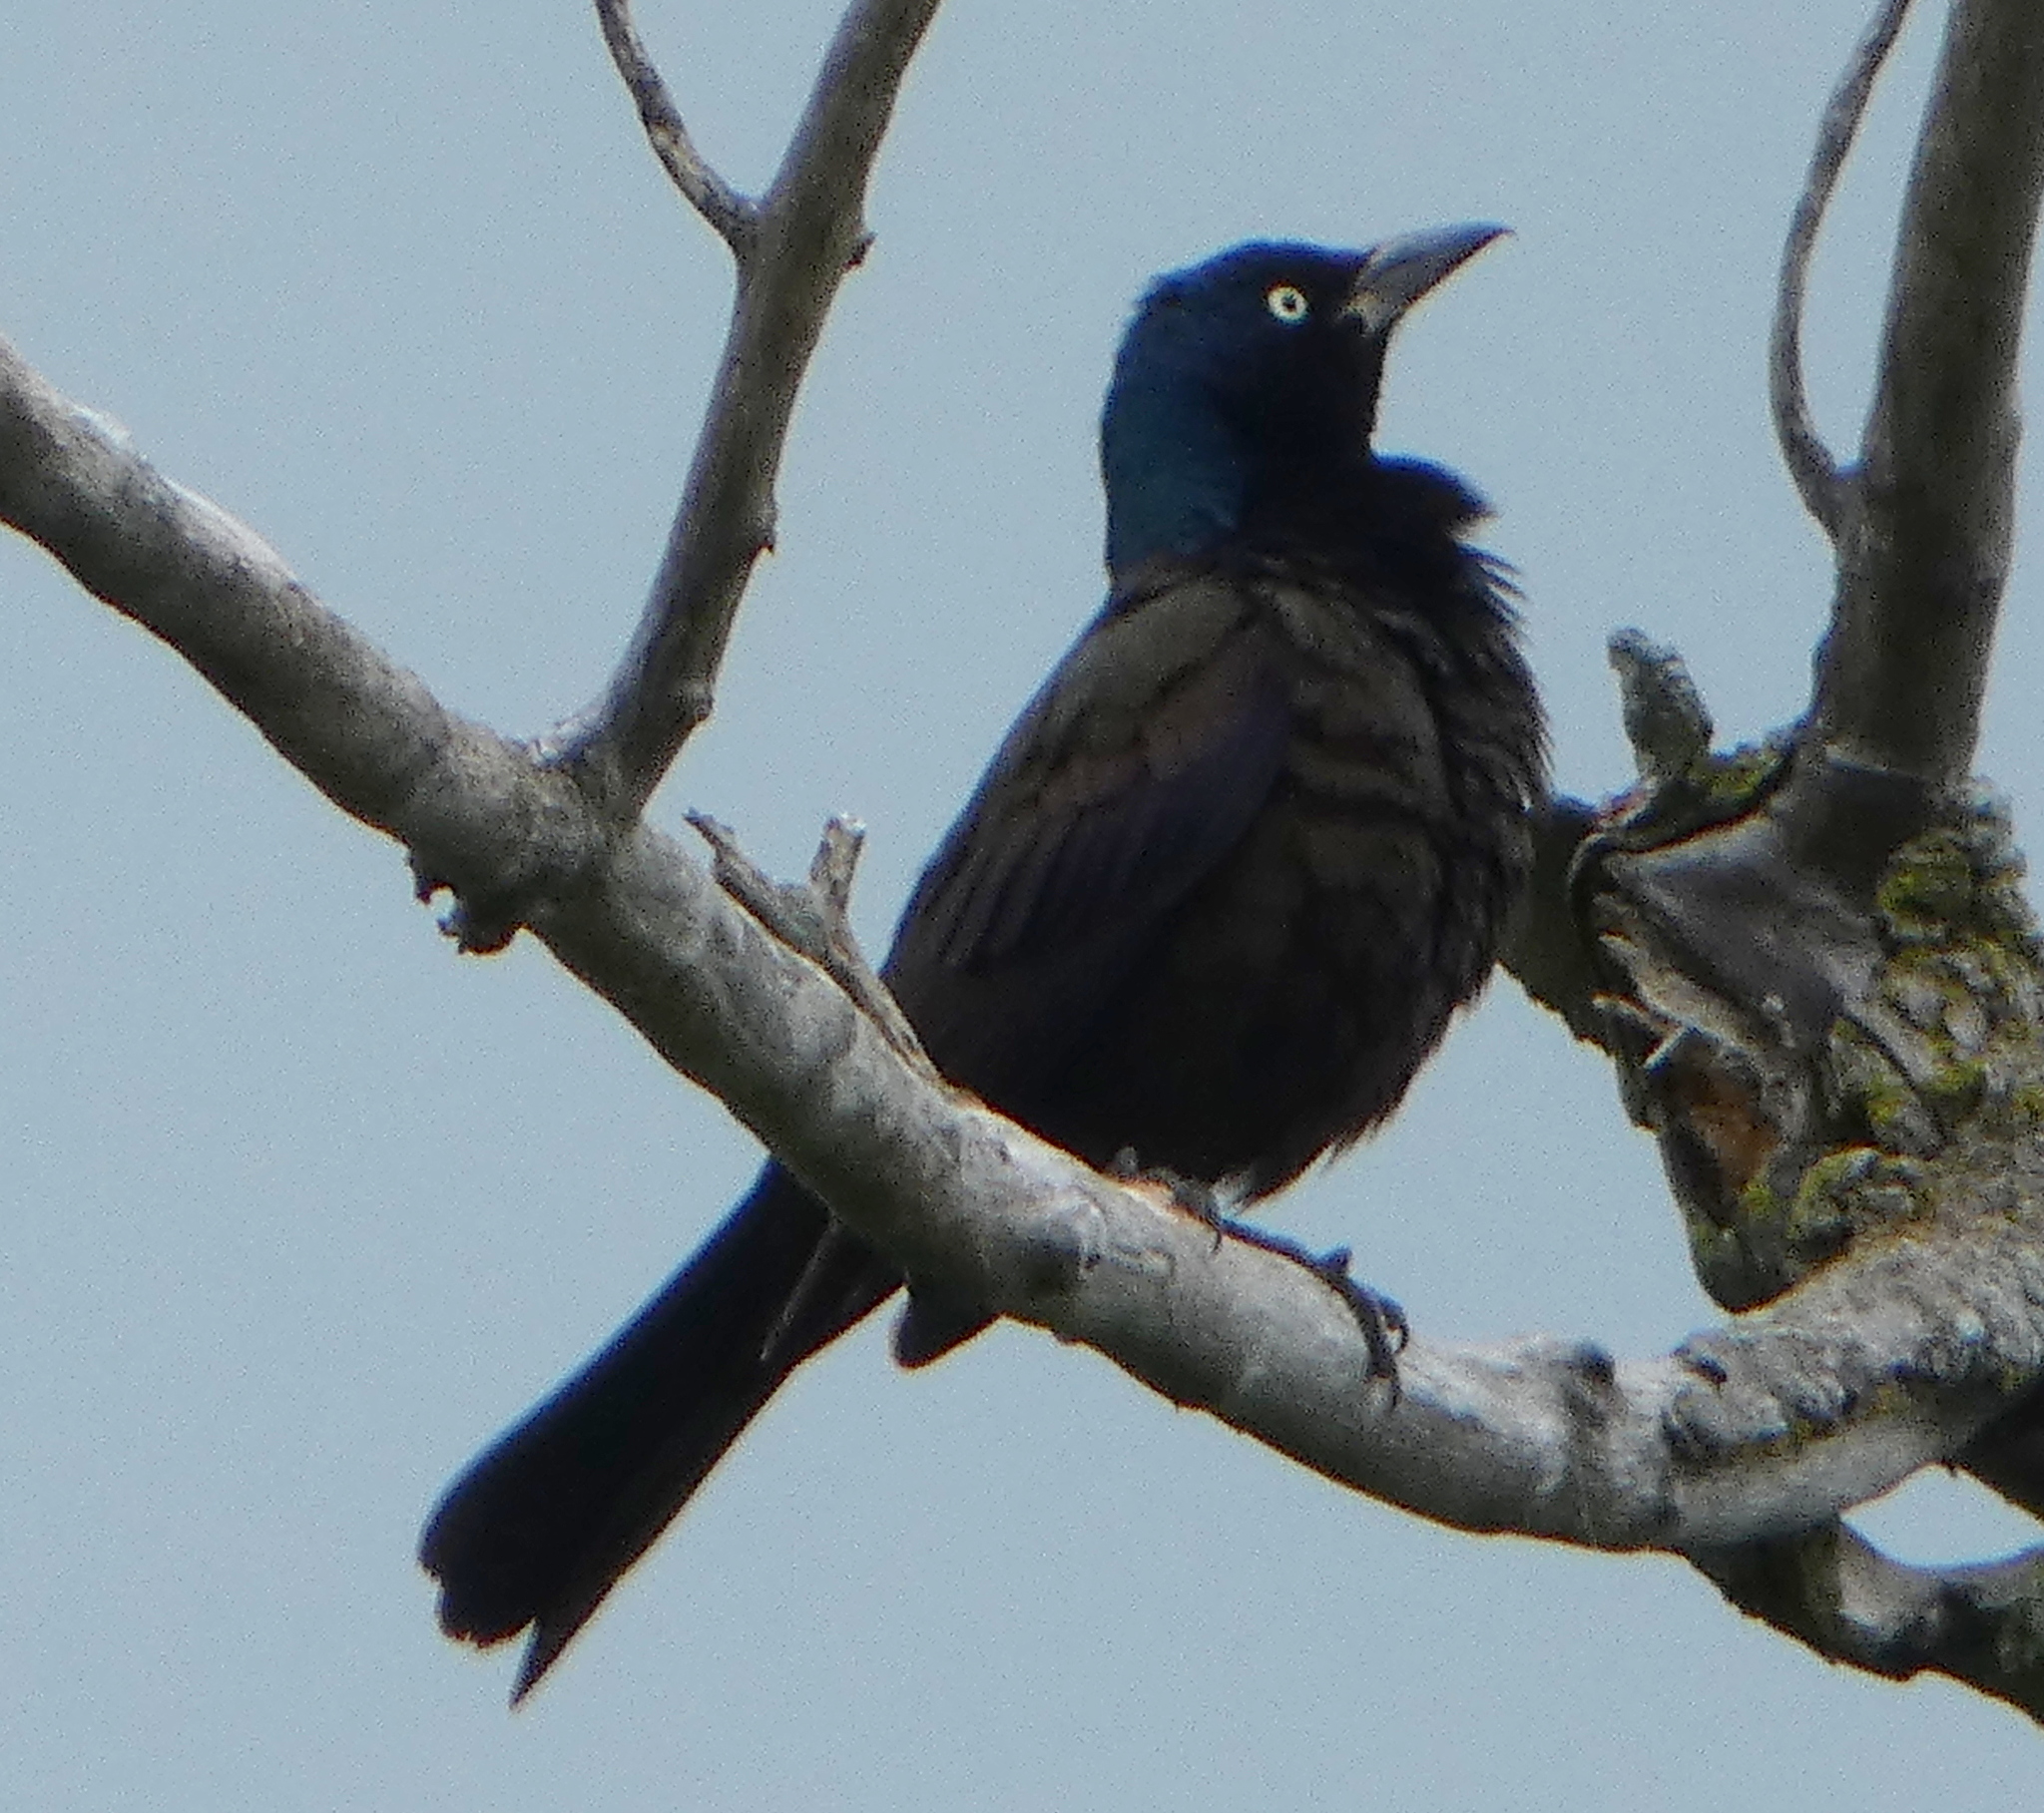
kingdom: Animalia
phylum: Chordata
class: Aves
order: Passeriformes
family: Icteridae
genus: Quiscalus
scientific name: Quiscalus quiscula
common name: Common grackle
